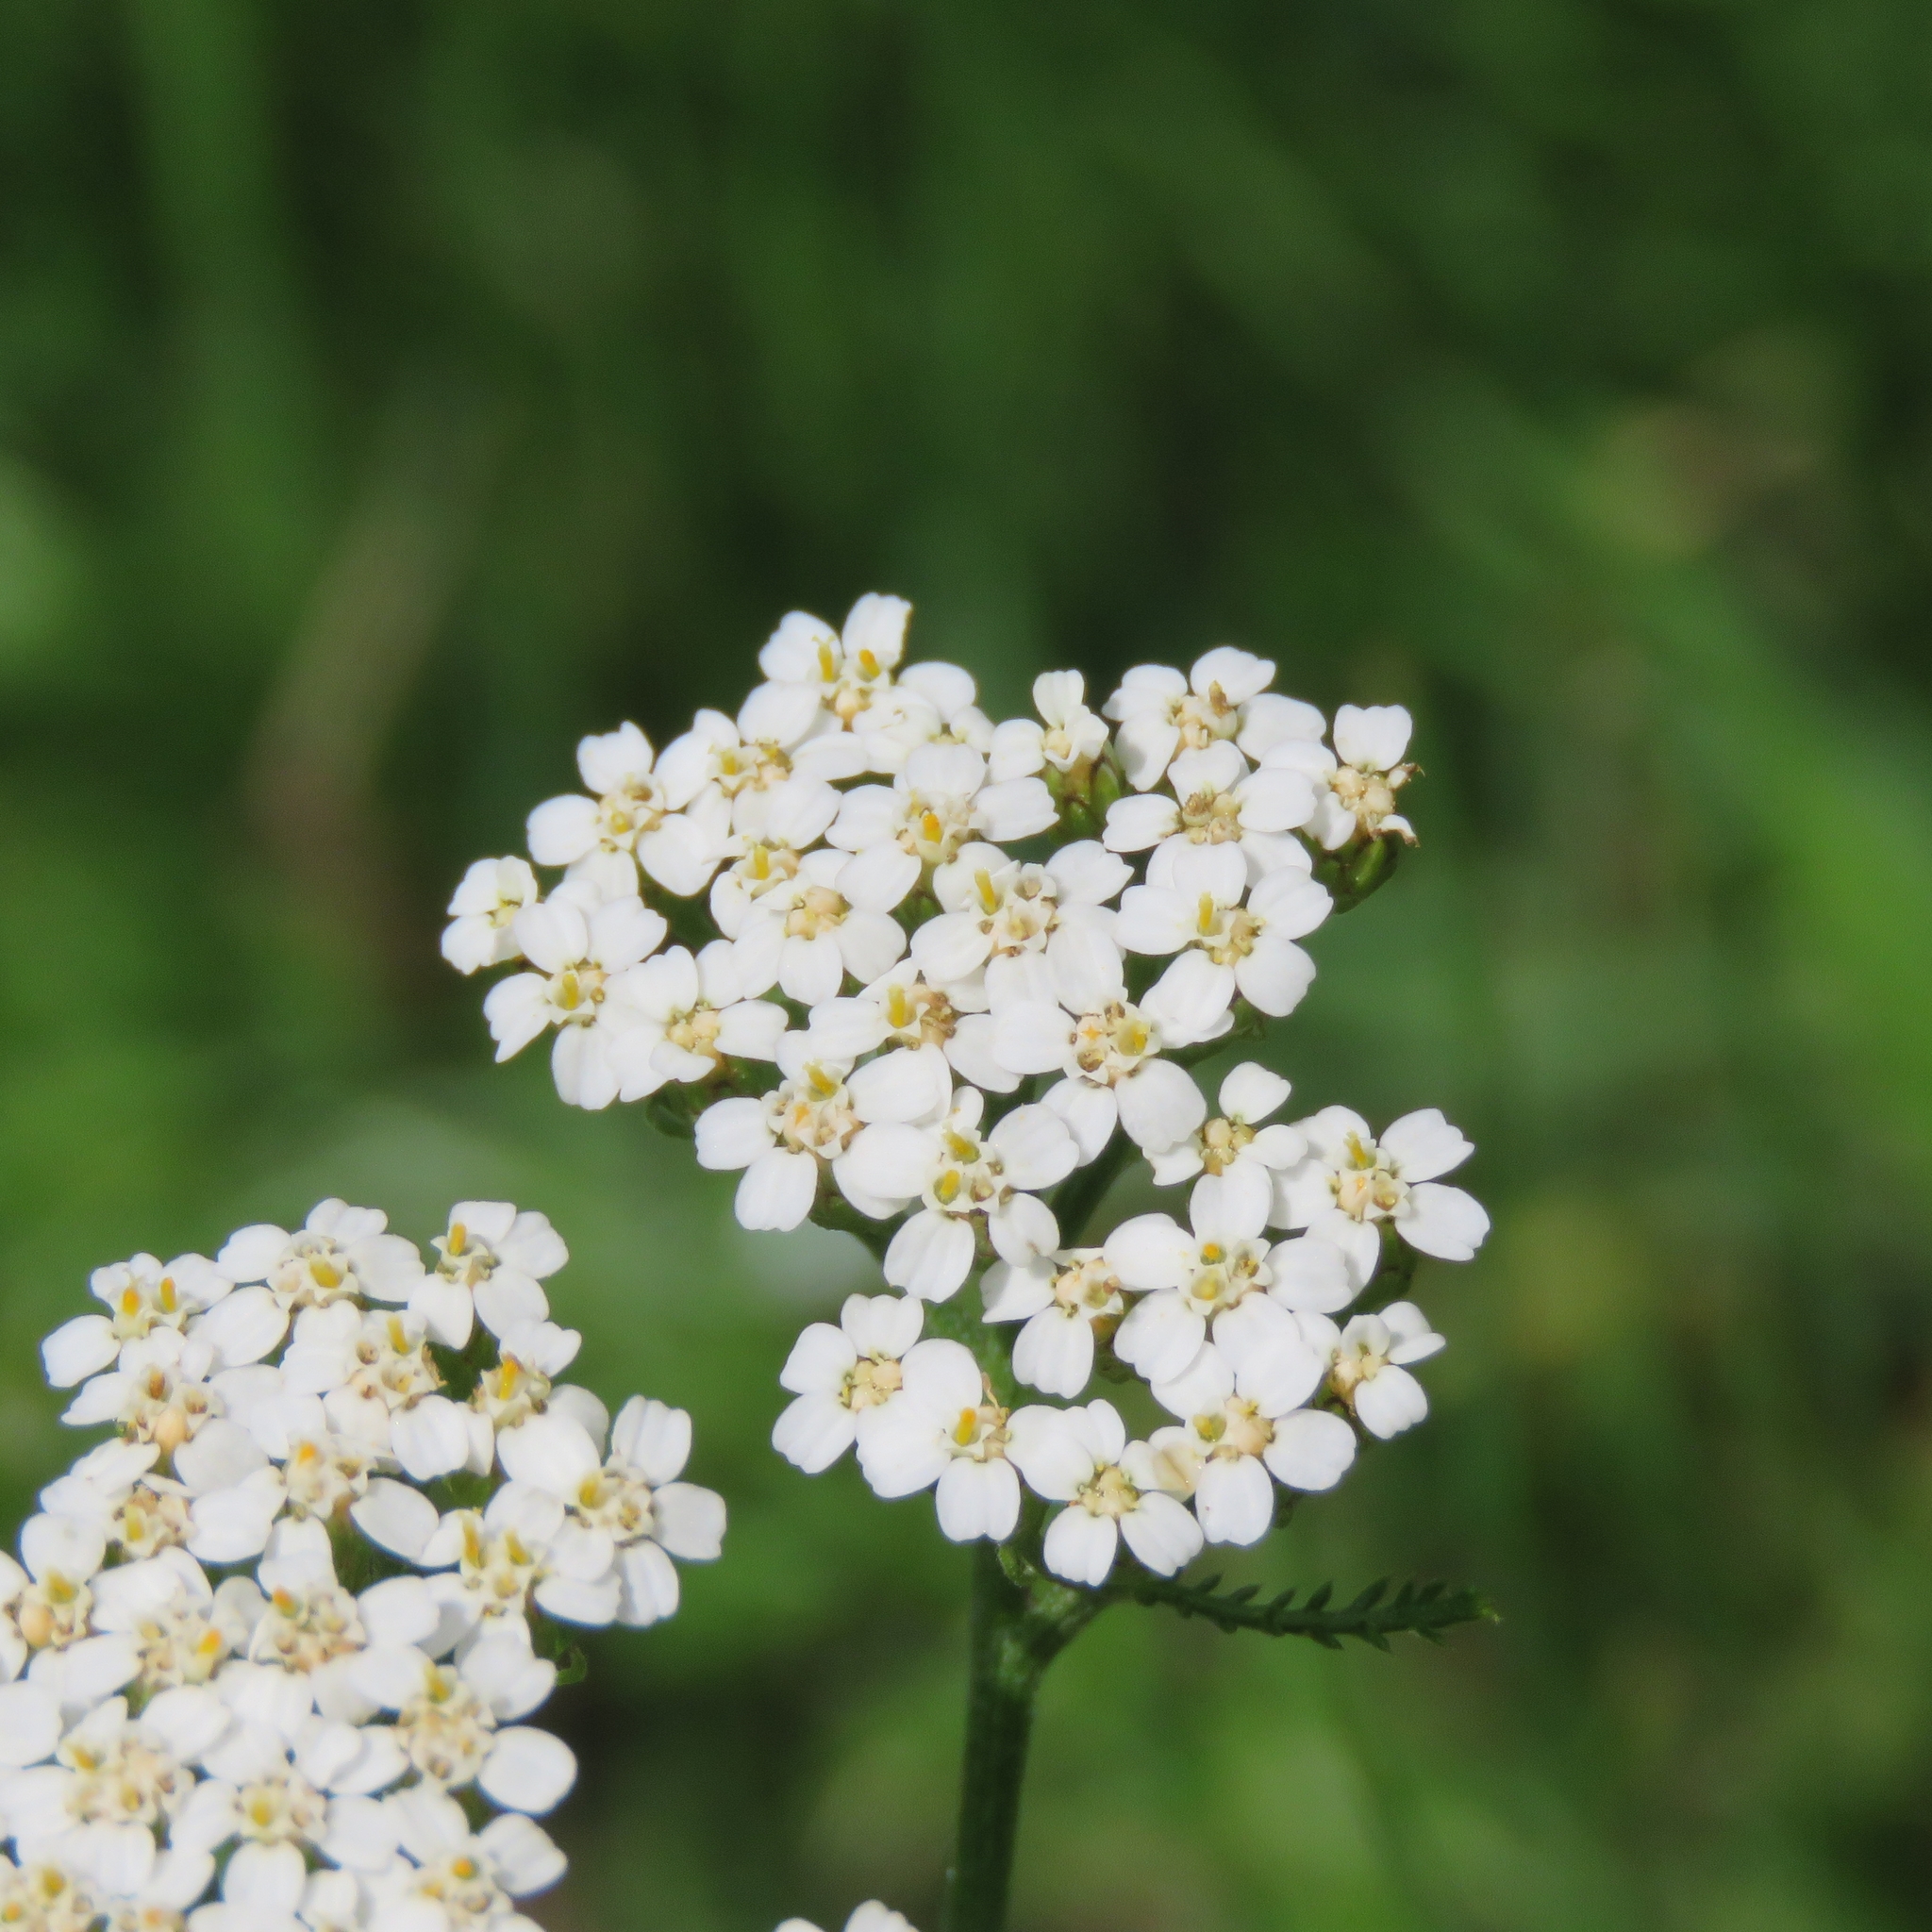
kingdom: Plantae
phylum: Tracheophyta
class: Magnoliopsida
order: Asterales
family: Asteraceae
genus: Achillea
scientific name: Achillea millefolium
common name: Yarrow
